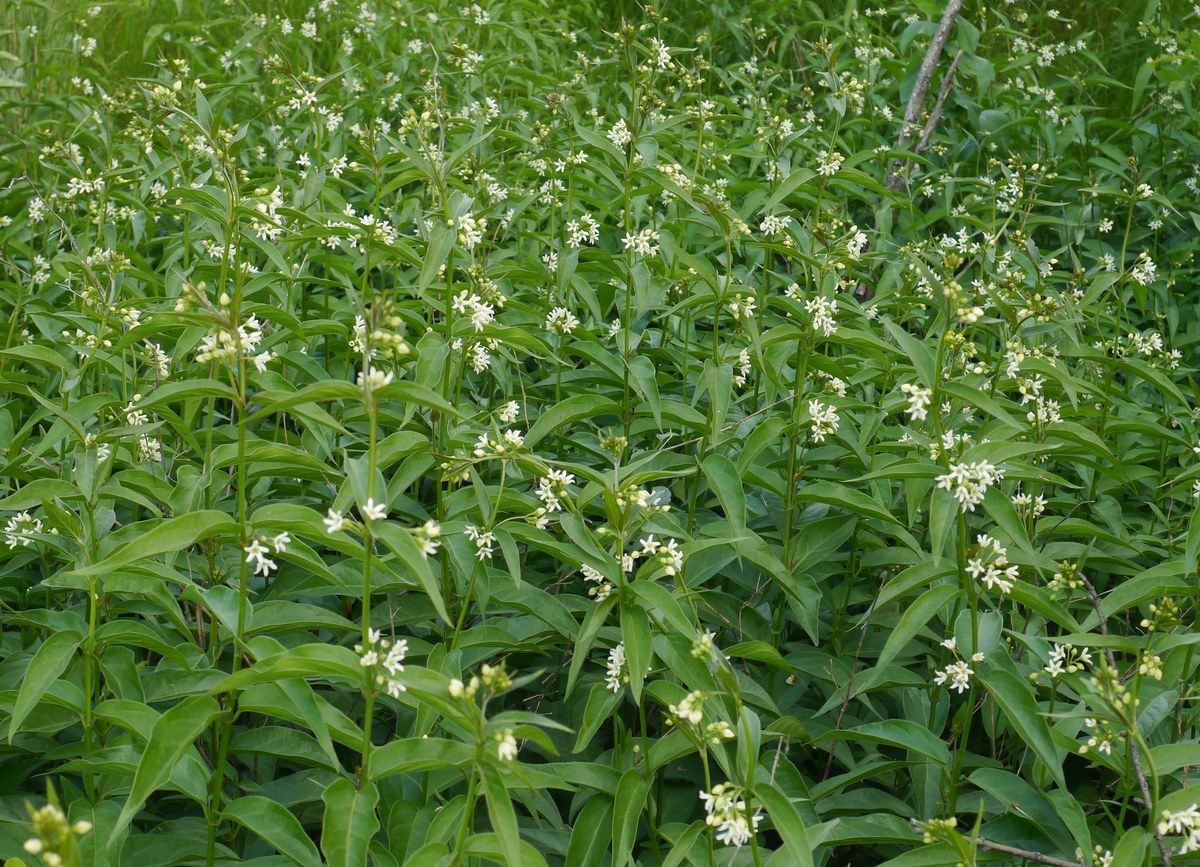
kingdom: Plantae
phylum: Tracheophyta
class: Magnoliopsida
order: Gentianales
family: Apocynaceae
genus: Vincetoxicum
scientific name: Vincetoxicum hirundinaria
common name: White swallowwort
